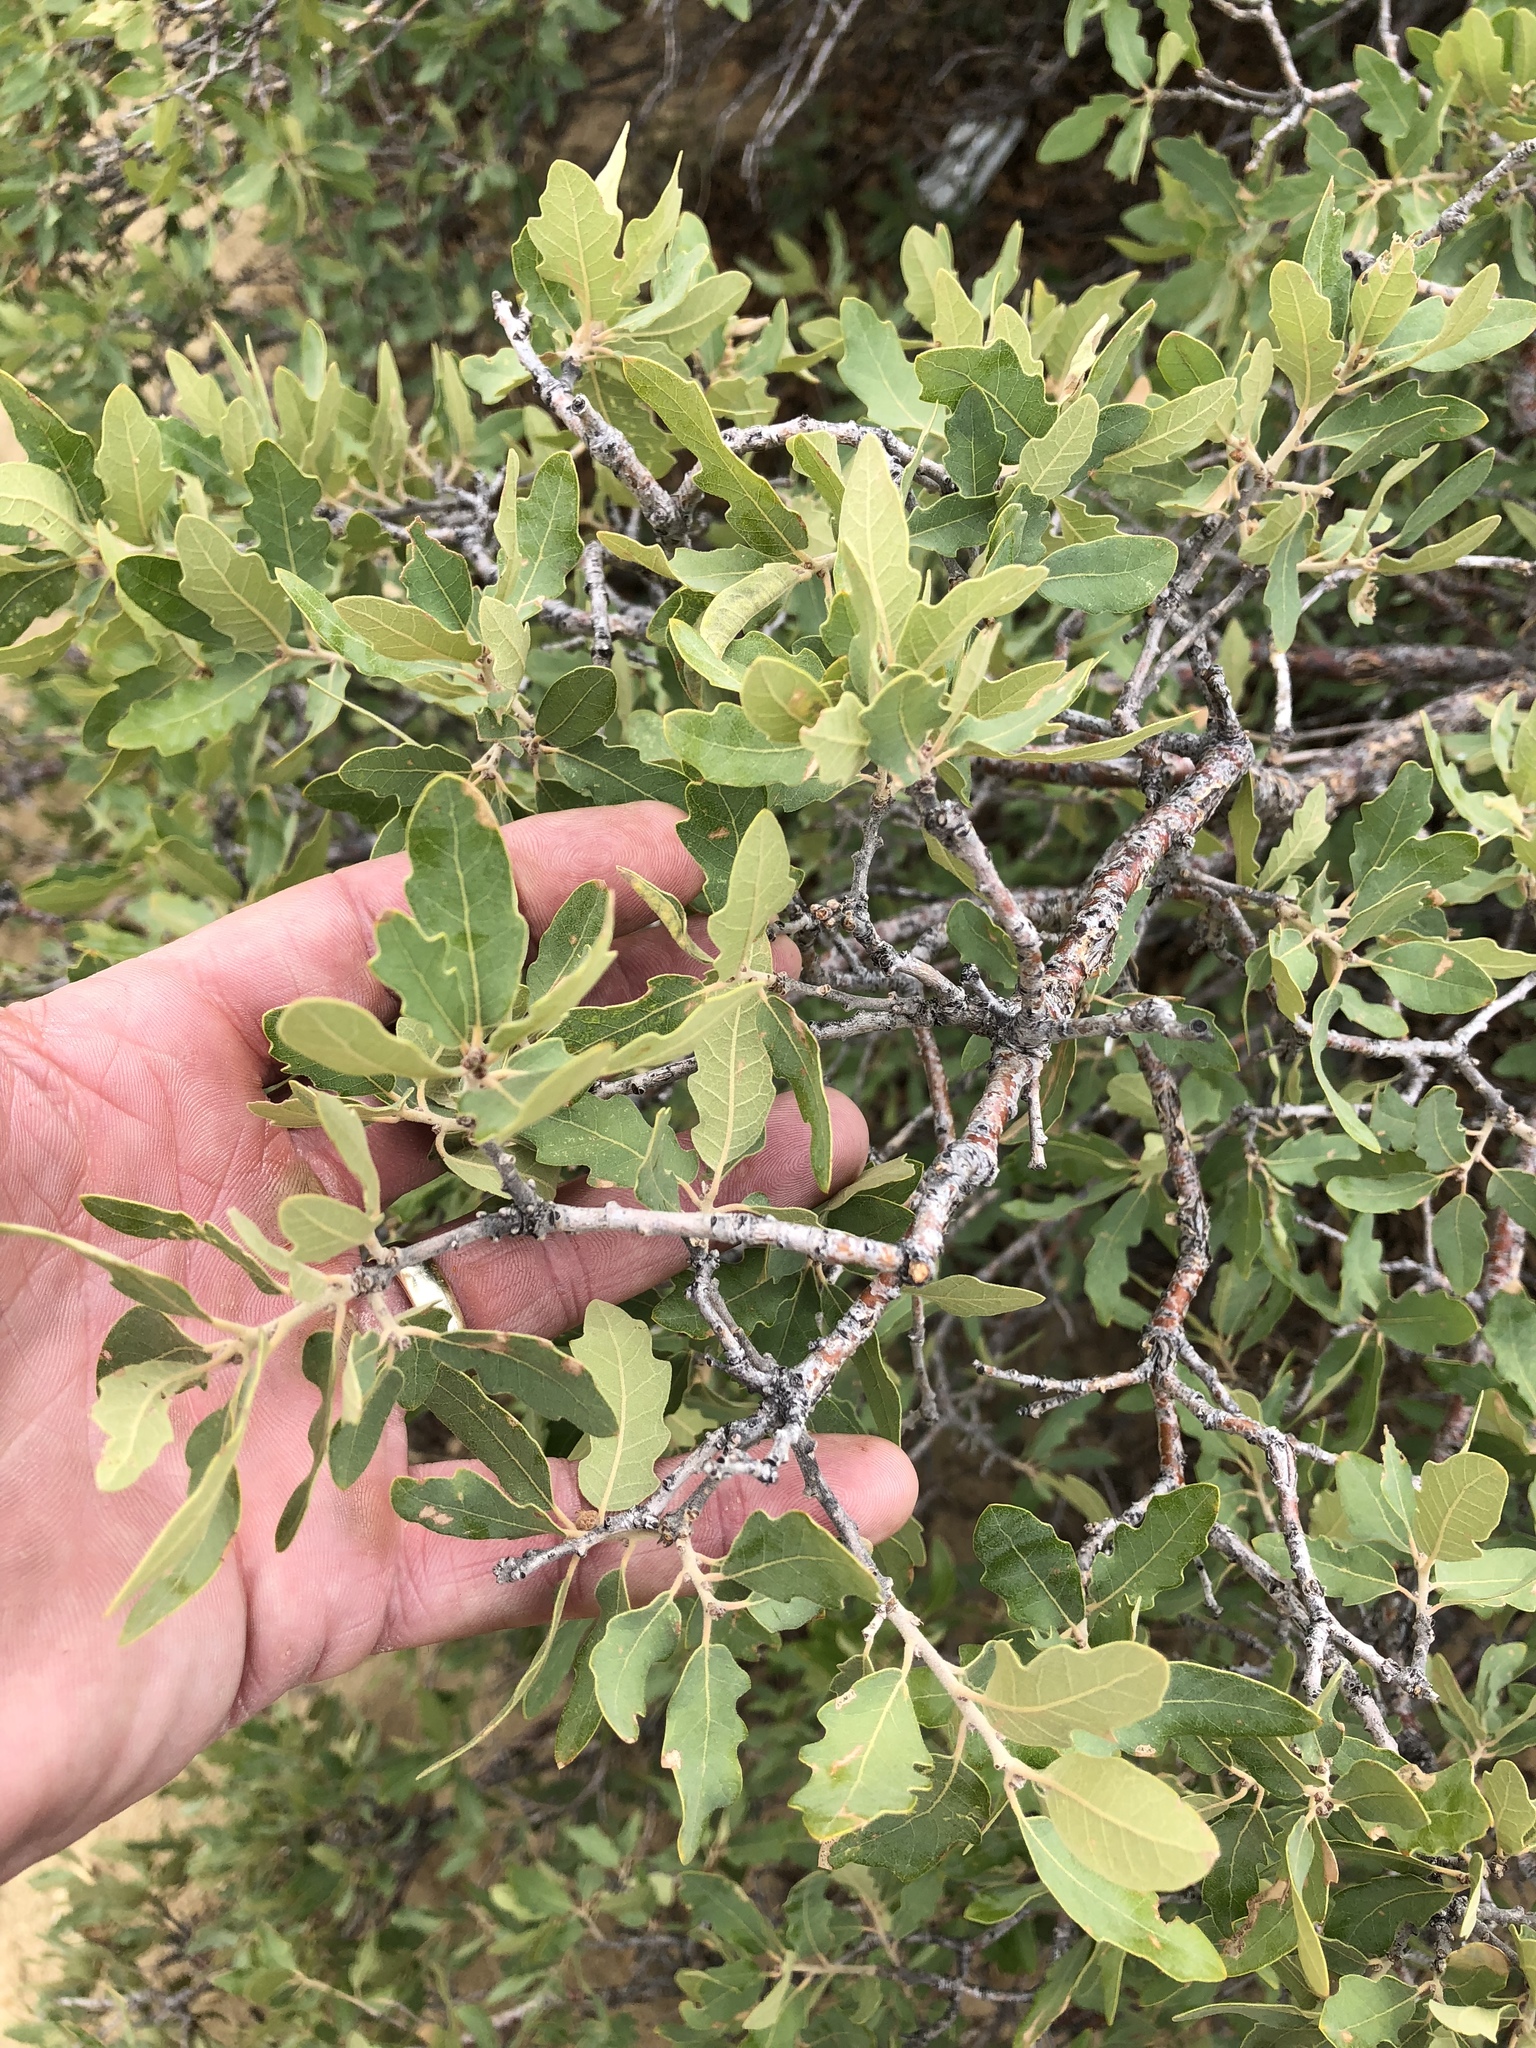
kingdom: Plantae
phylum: Tracheophyta
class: Magnoliopsida
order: Fagales
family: Fagaceae
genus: Quercus
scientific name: Quercus undulata
